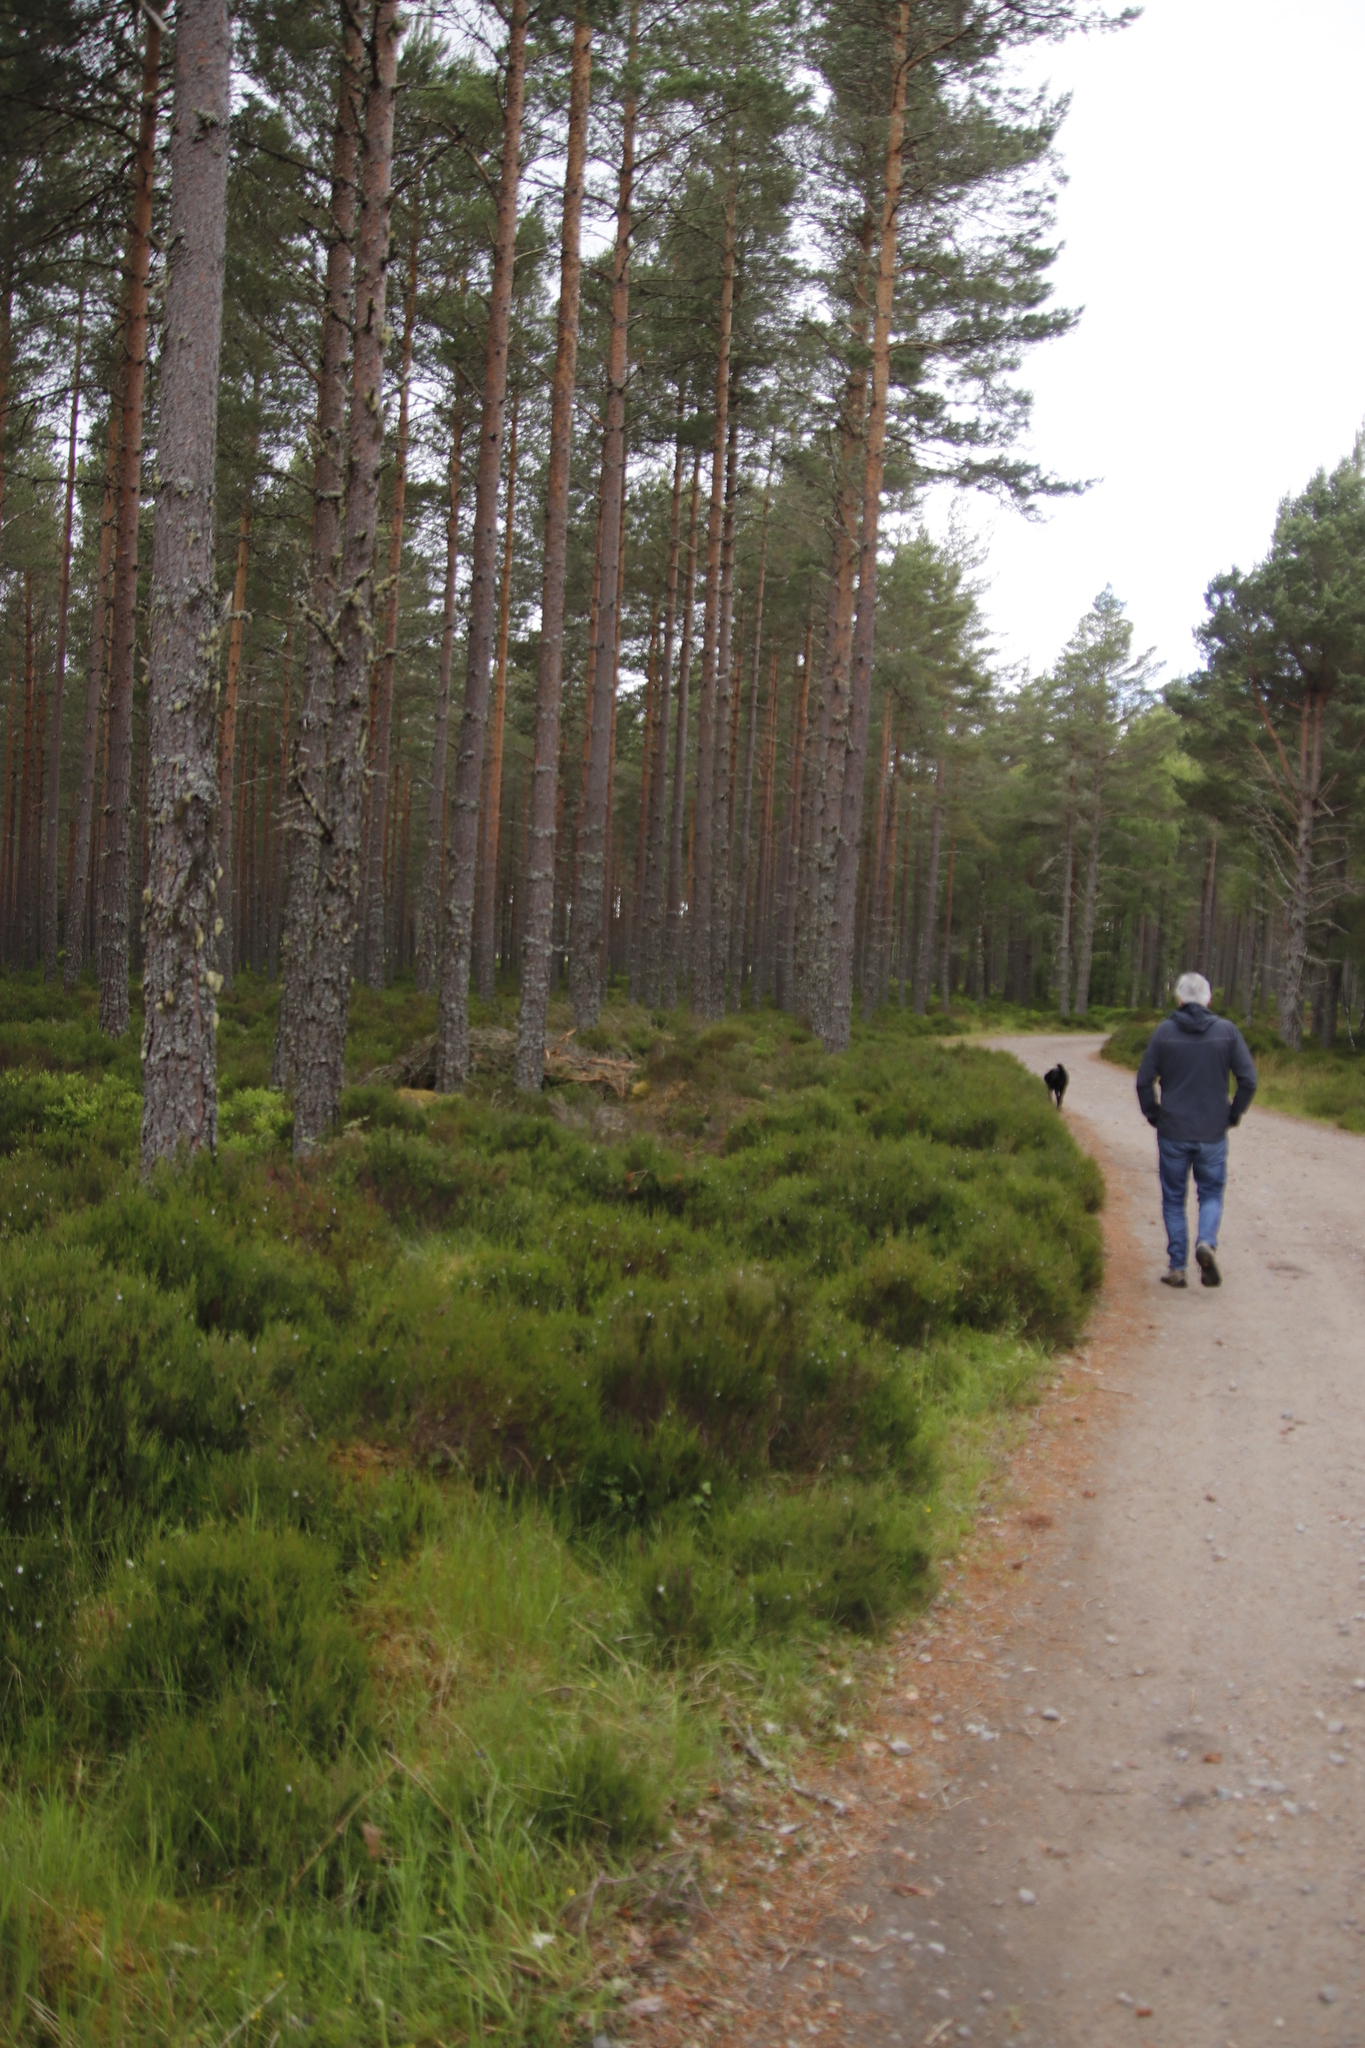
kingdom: Plantae
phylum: Tracheophyta
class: Magnoliopsida
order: Ericales
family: Ericaceae
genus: Calluna
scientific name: Calluna vulgaris
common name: Heather
